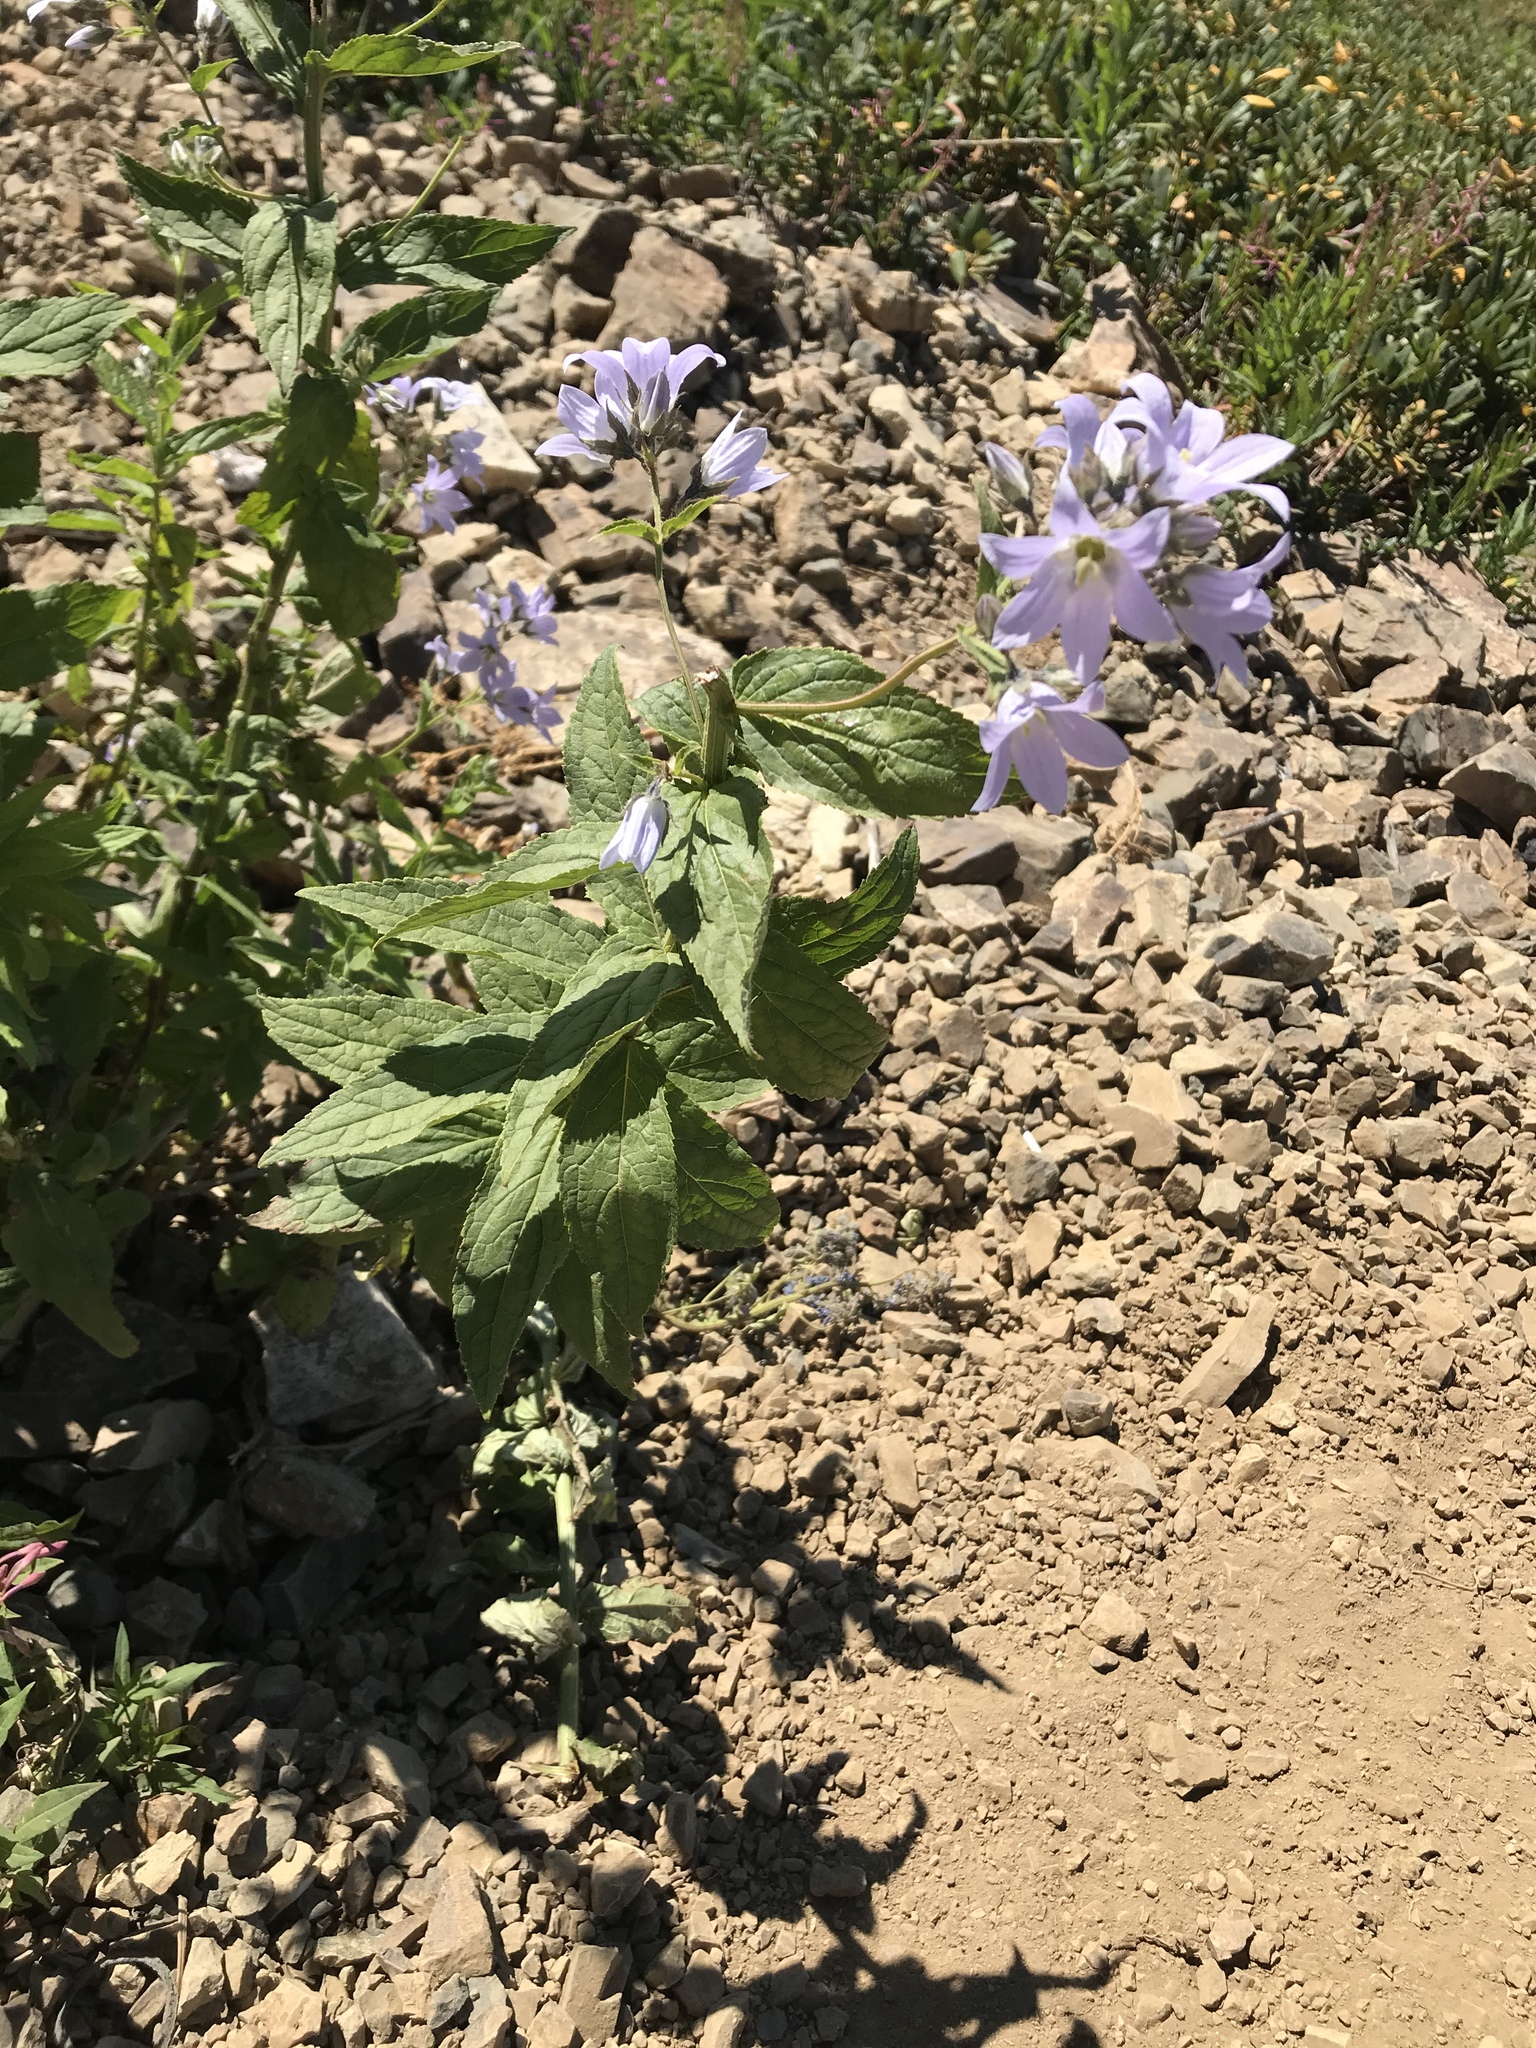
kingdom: Plantae
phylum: Tracheophyta
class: Magnoliopsida
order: Asterales
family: Campanulaceae
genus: Campanula
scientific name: Campanula lactiflora
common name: Milky bellflower
